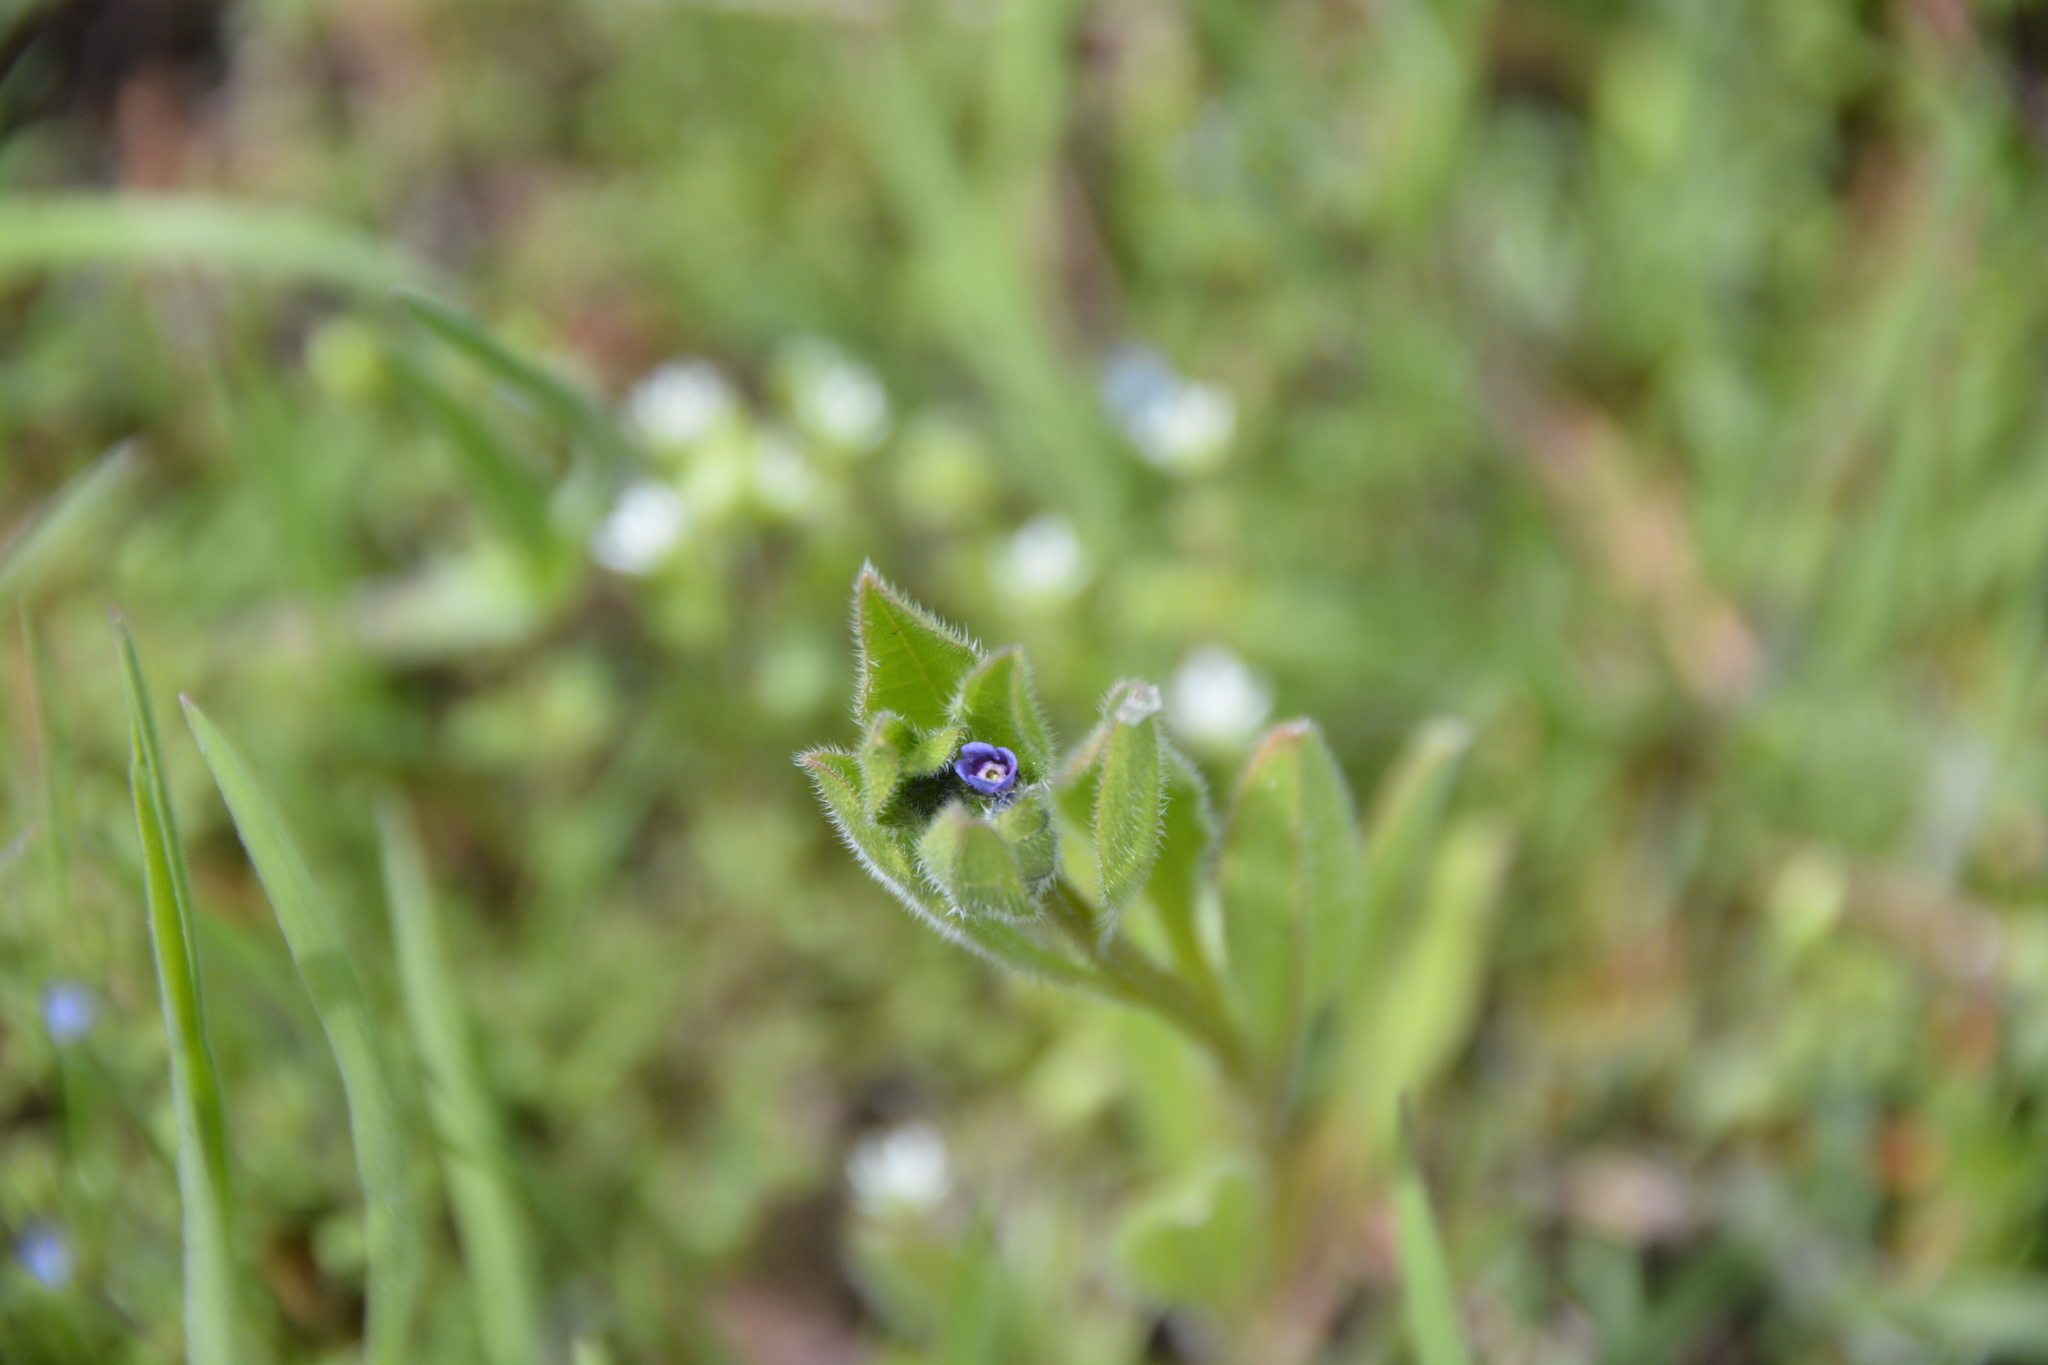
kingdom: Plantae
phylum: Tracheophyta
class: Magnoliopsida
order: Boraginales
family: Boraginaceae
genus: Asperugo
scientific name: Asperugo procumbens
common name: Madwort
